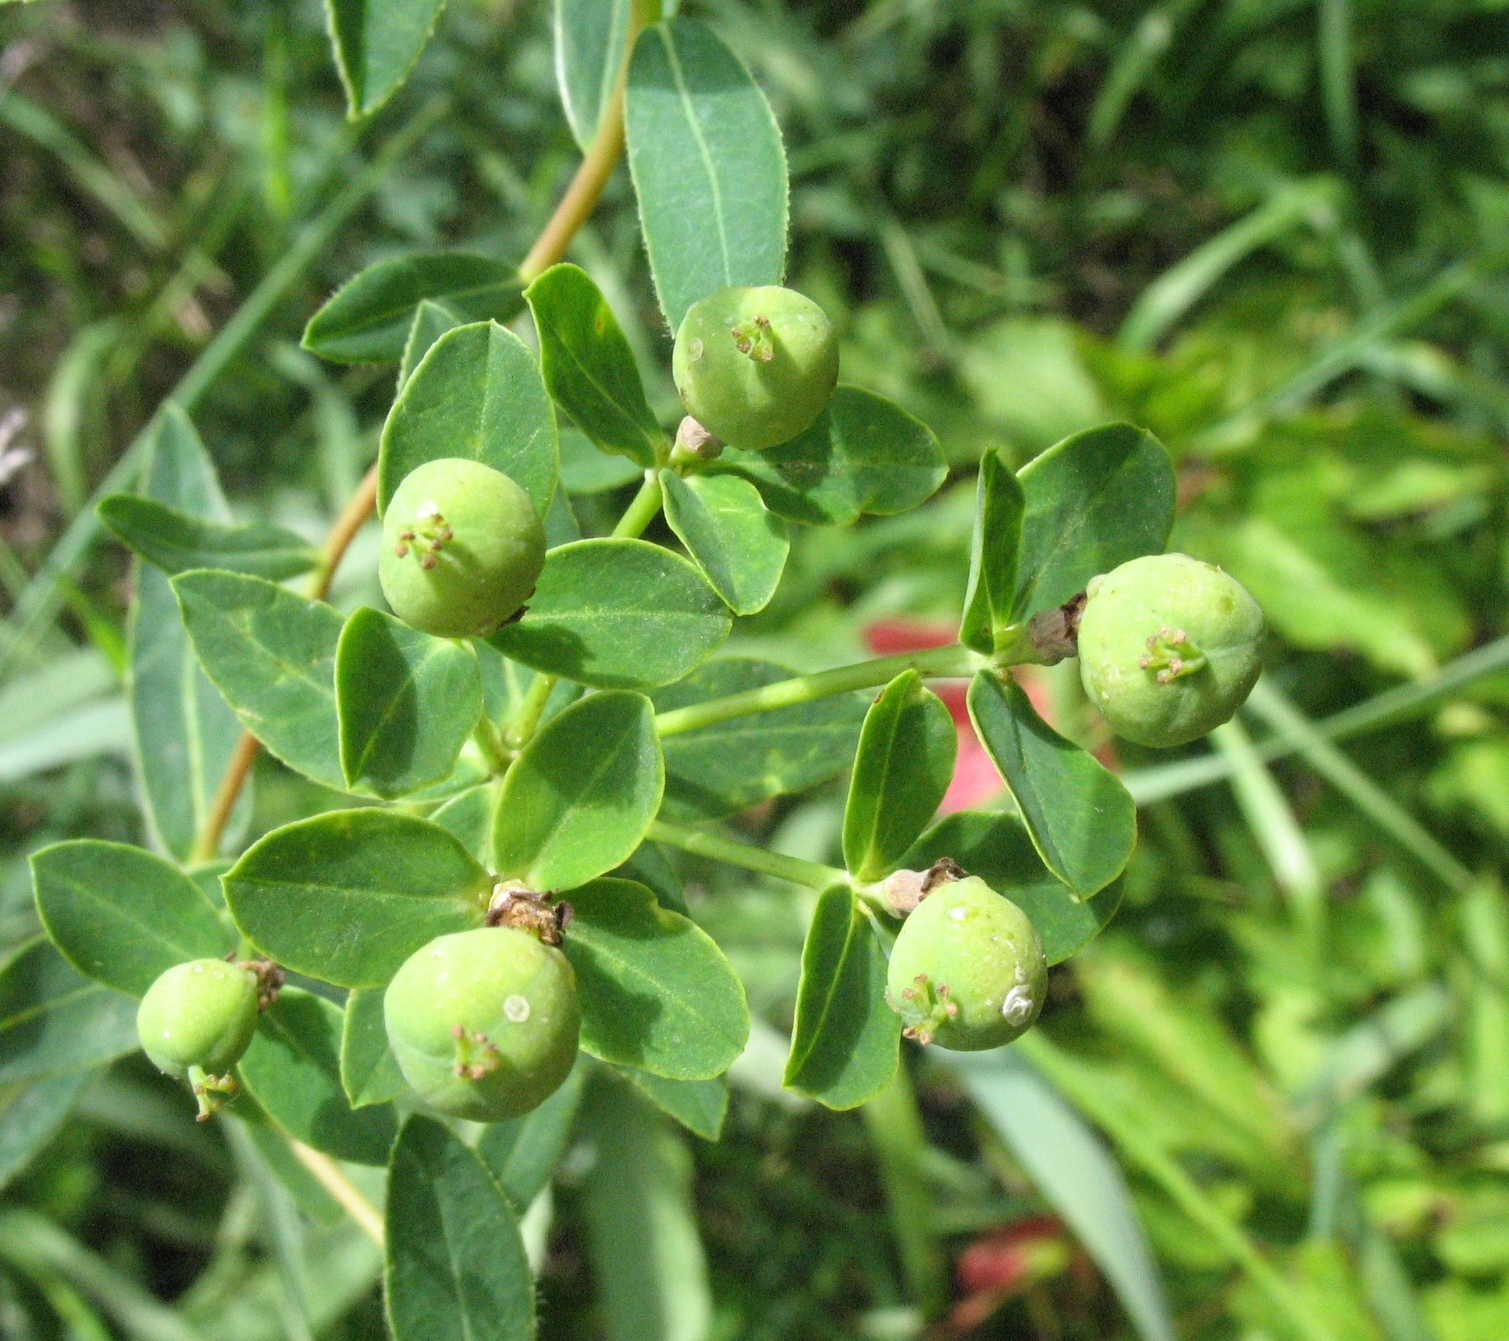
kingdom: Plantae
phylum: Tracheophyta
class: Magnoliopsida
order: Malpighiales
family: Euphorbiaceae
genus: Euphorbia
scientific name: Euphorbia semivillosa
